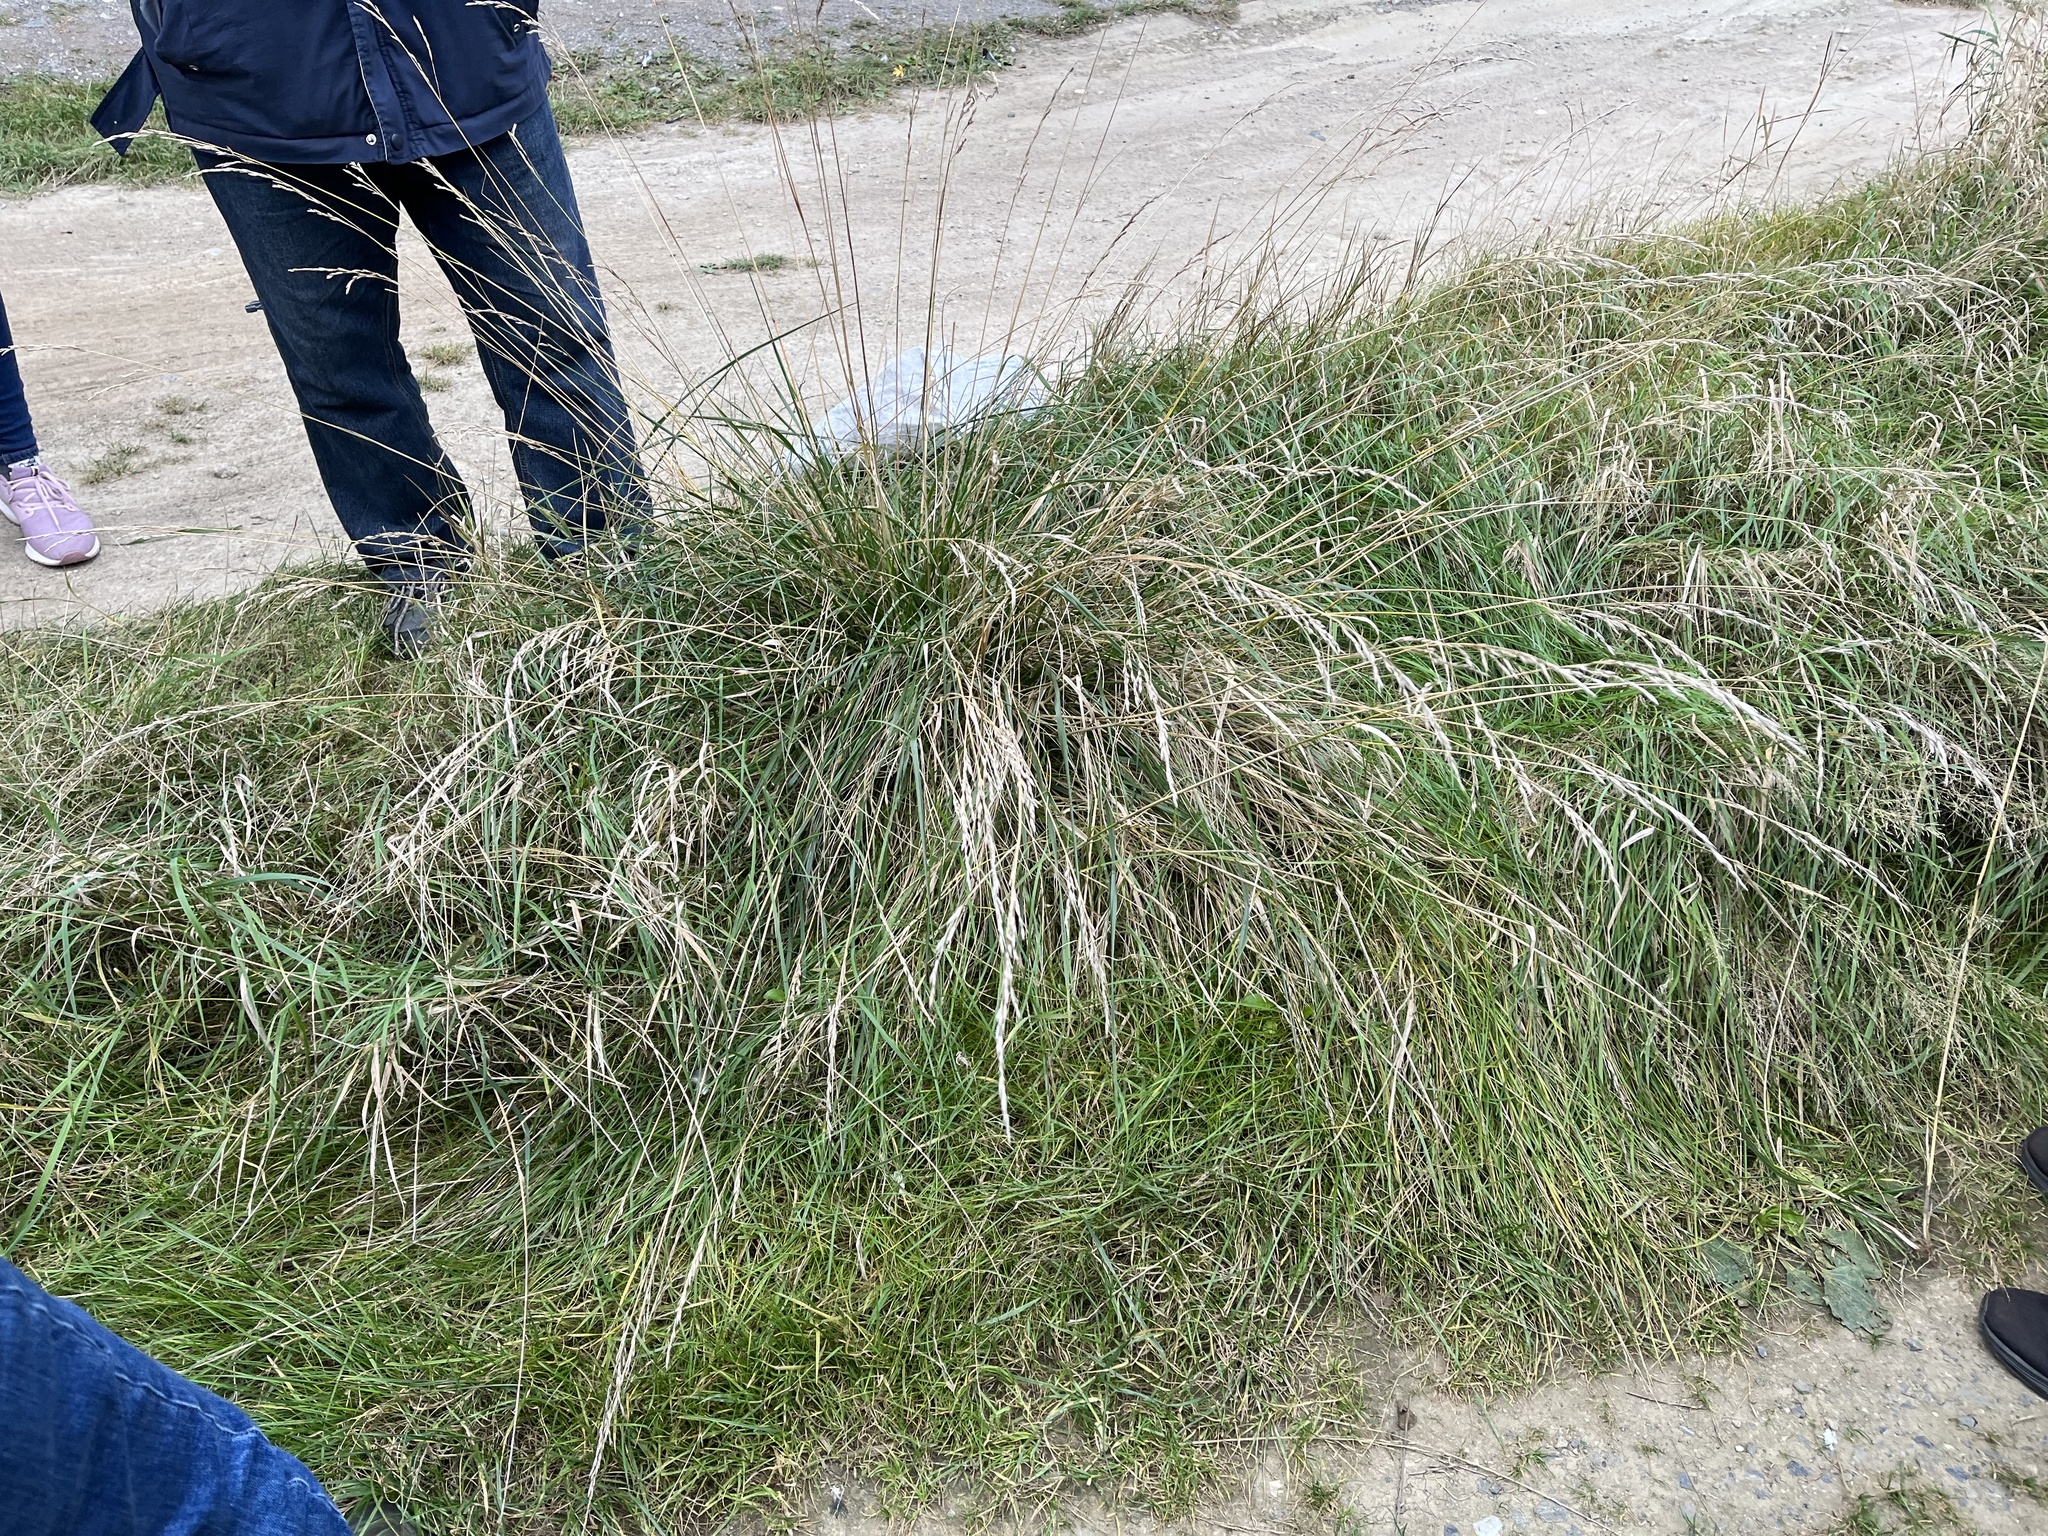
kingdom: Plantae
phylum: Tracheophyta
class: Liliopsida
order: Poales
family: Poaceae
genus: Lolium
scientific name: Lolium arundinaceum
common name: Reed fescue
